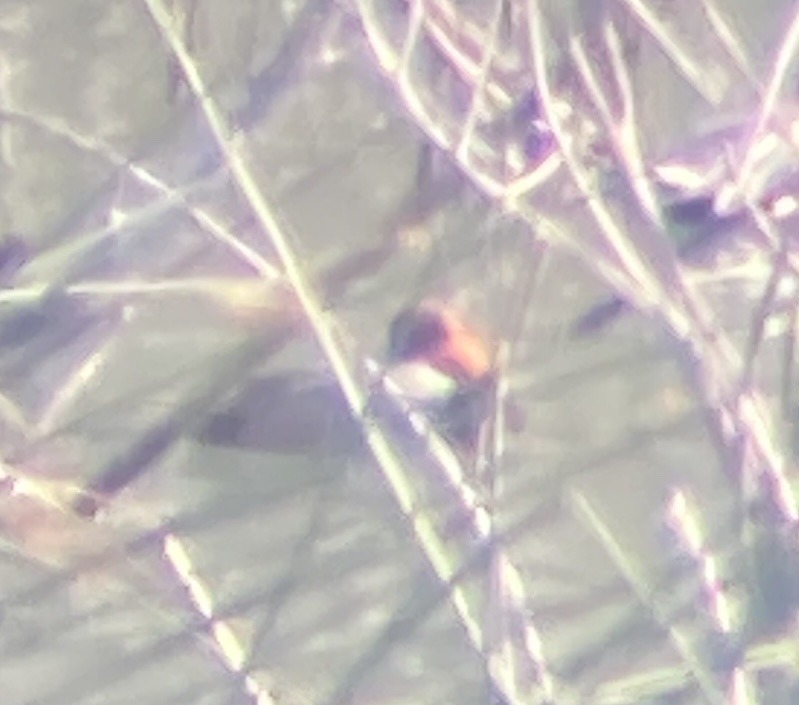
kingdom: Animalia
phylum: Chordata
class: Aves
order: Anseriformes
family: Anatidae
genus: Aythya
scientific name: Aythya americana
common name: Redhead
